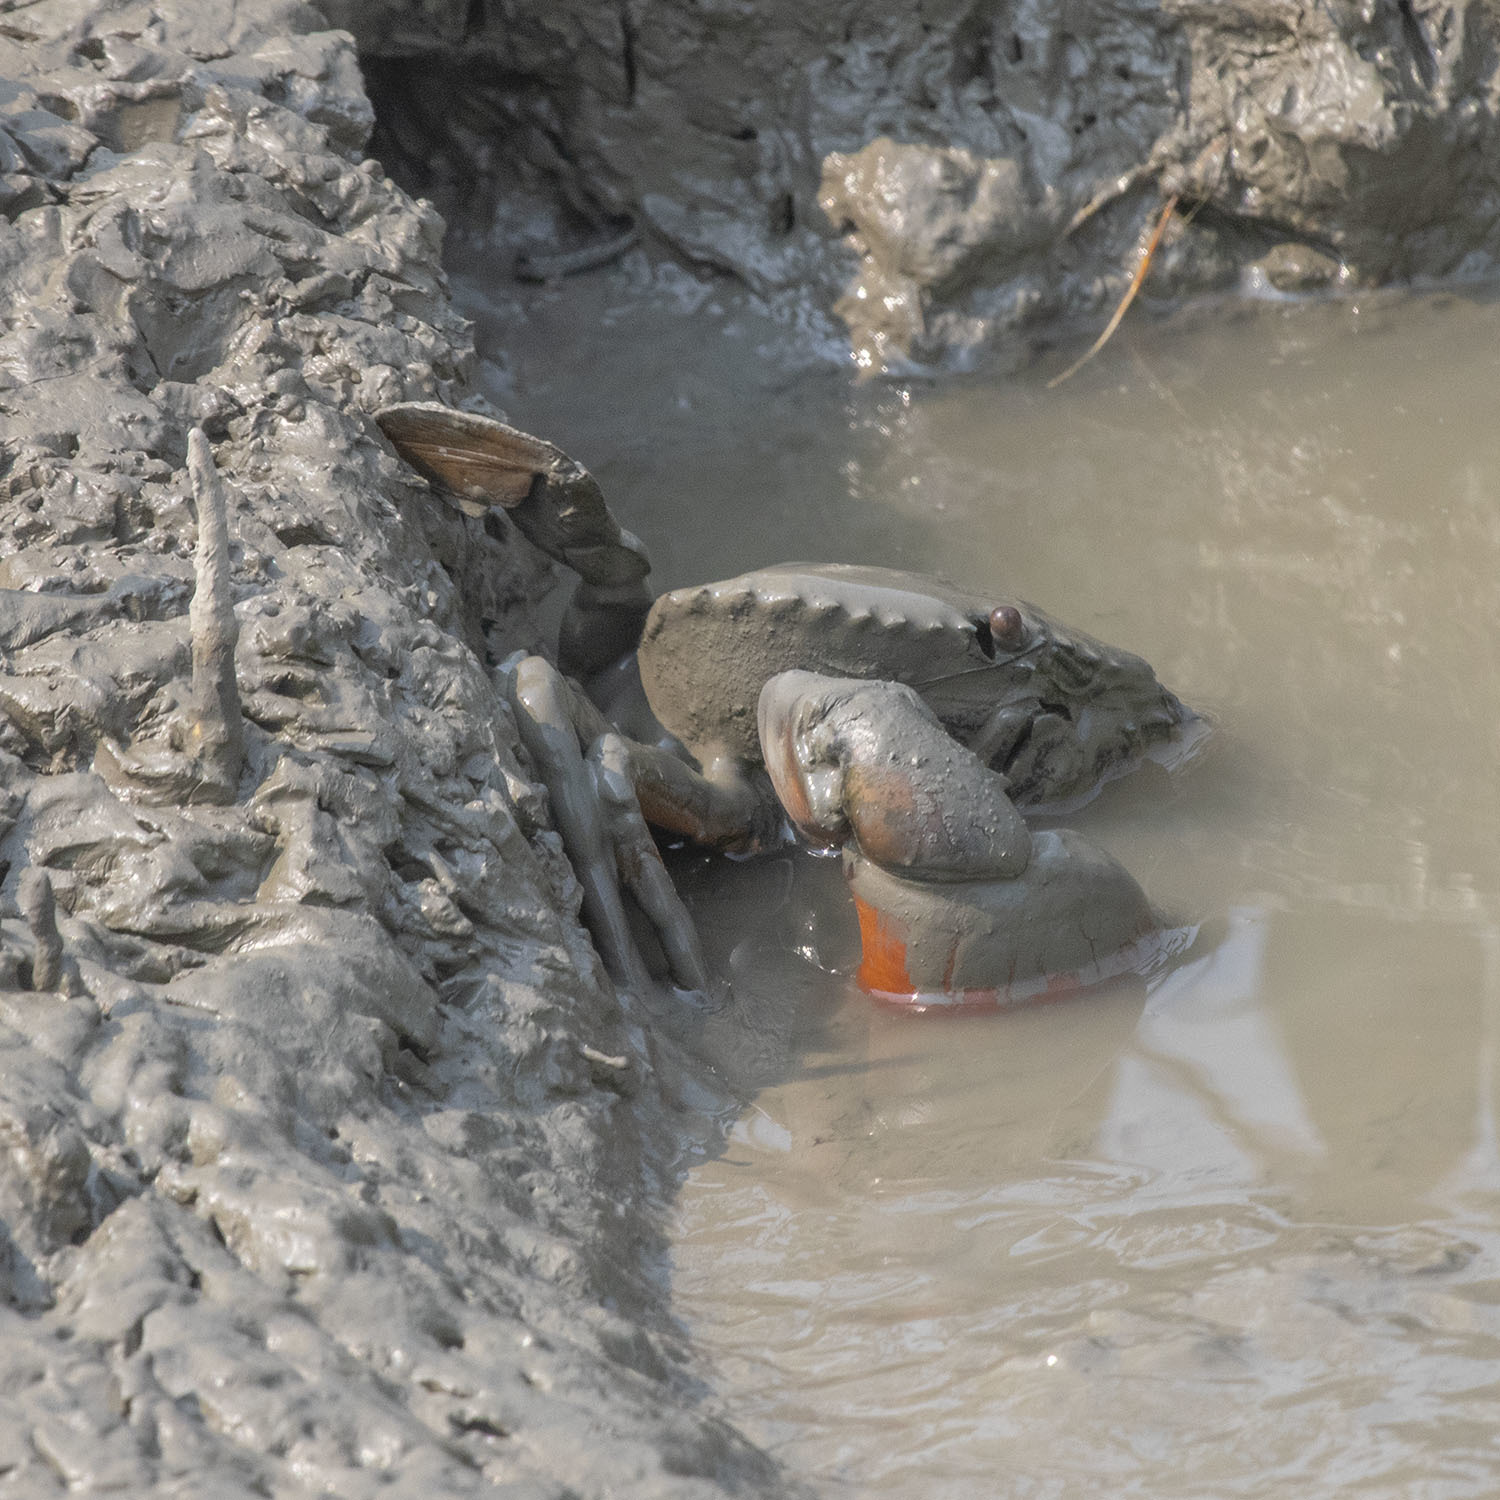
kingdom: Animalia
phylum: Arthropoda
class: Malacostraca
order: Decapoda
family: Portunidae
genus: Scylla
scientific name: Scylla olivacea
